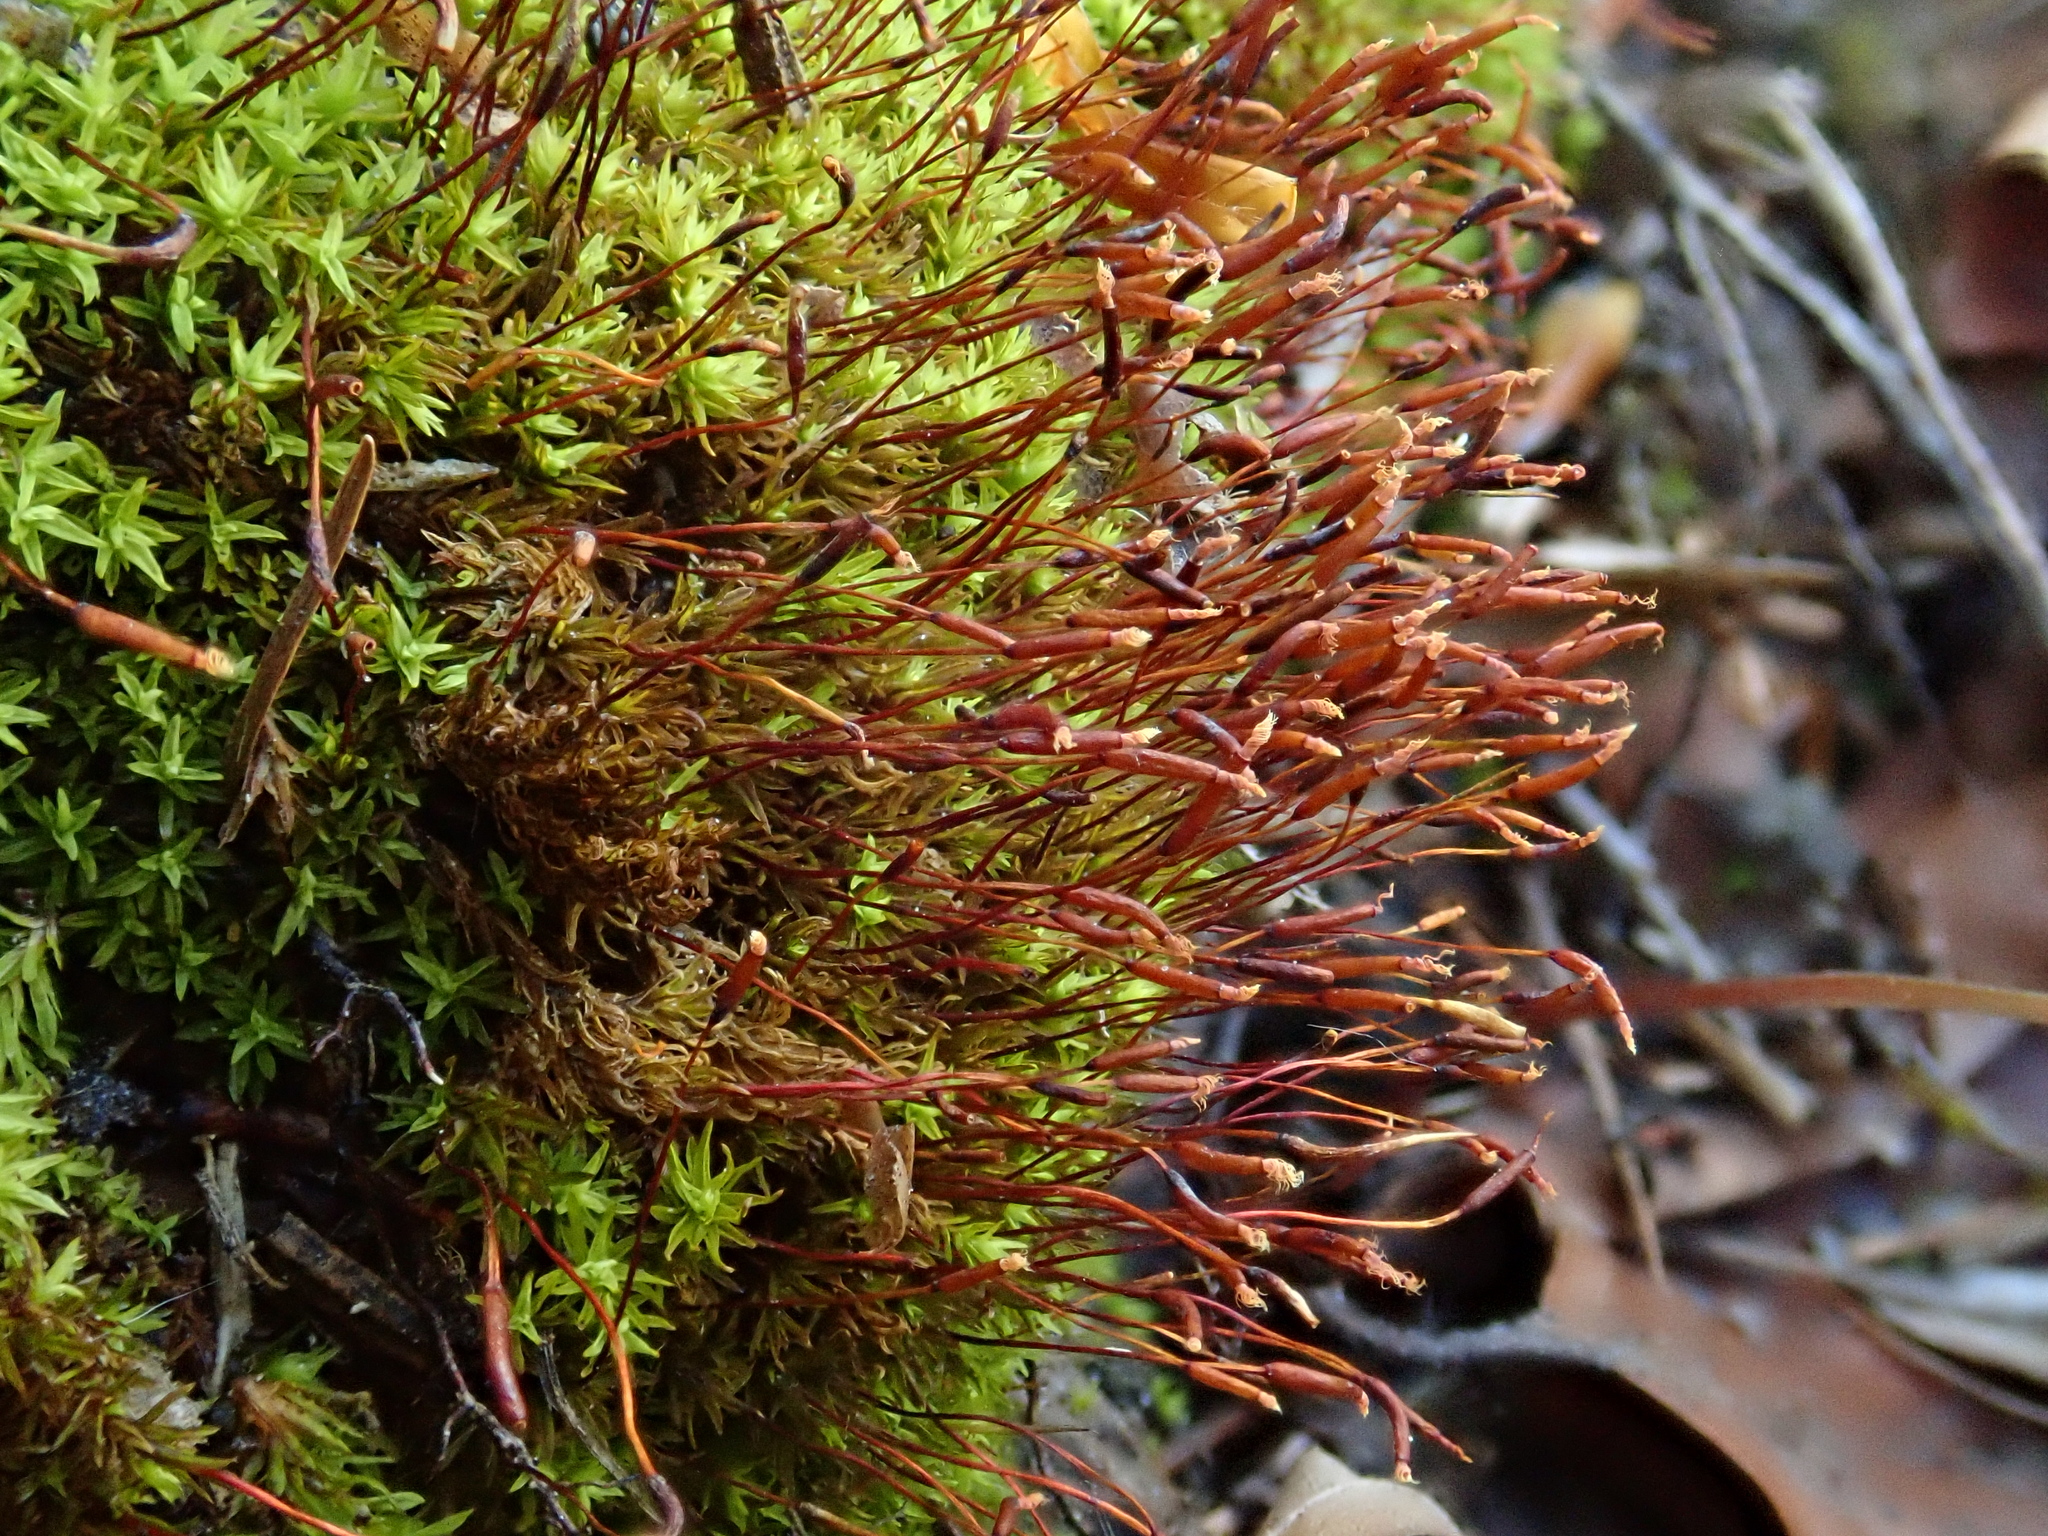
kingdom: Plantae
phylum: Bryophyta
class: Bryopsida
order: Pottiales
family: Pottiaceae
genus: Barbula
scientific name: Barbula unguiculata
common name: Prickly beard moss
